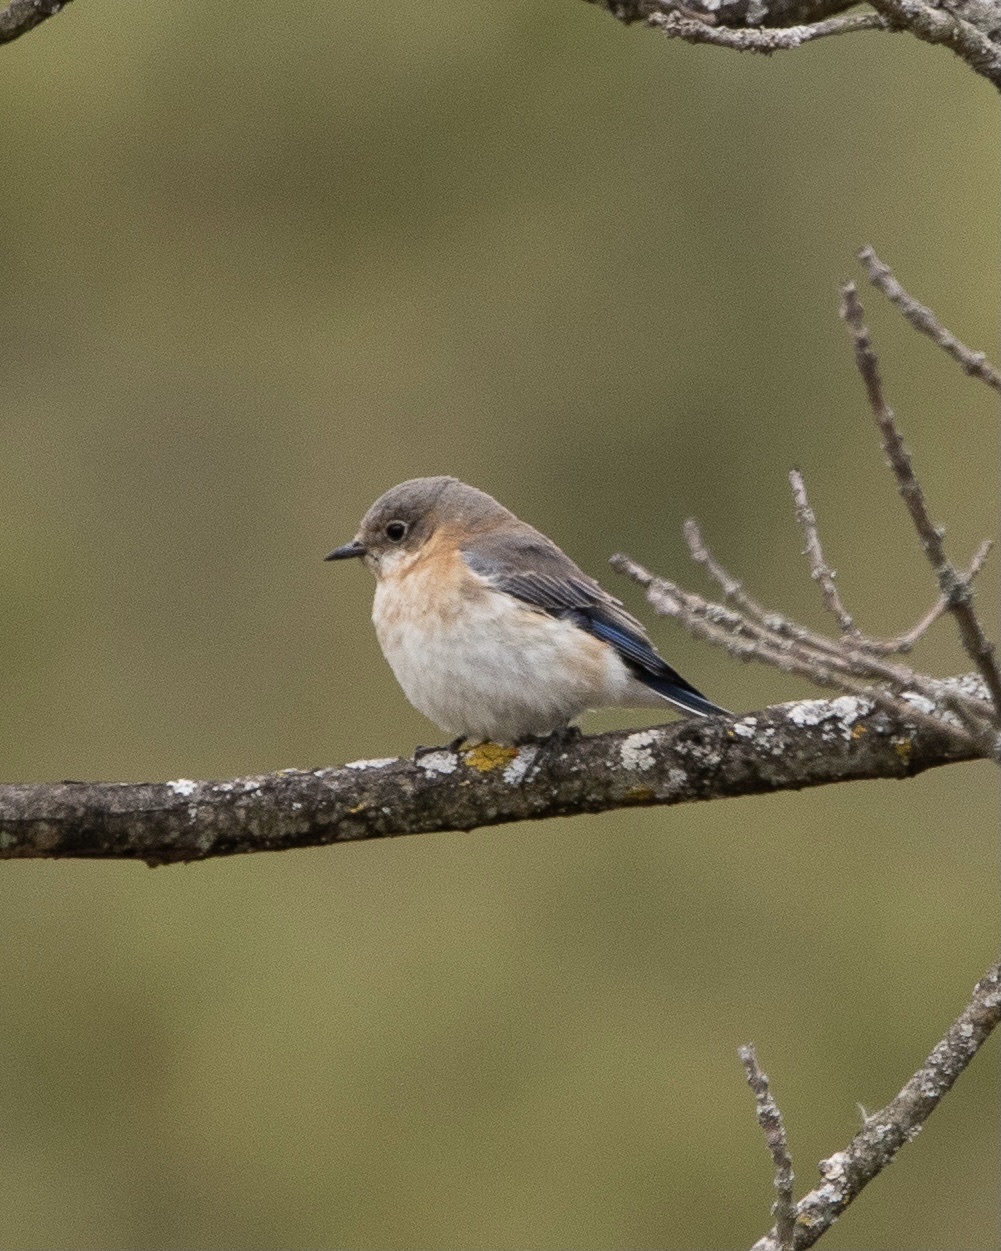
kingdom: Animalia
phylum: Chordata
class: Aves
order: Passeriformes
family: Turdidae
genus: Sialia
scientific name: Sialia sialis
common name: Eastern bluebird
